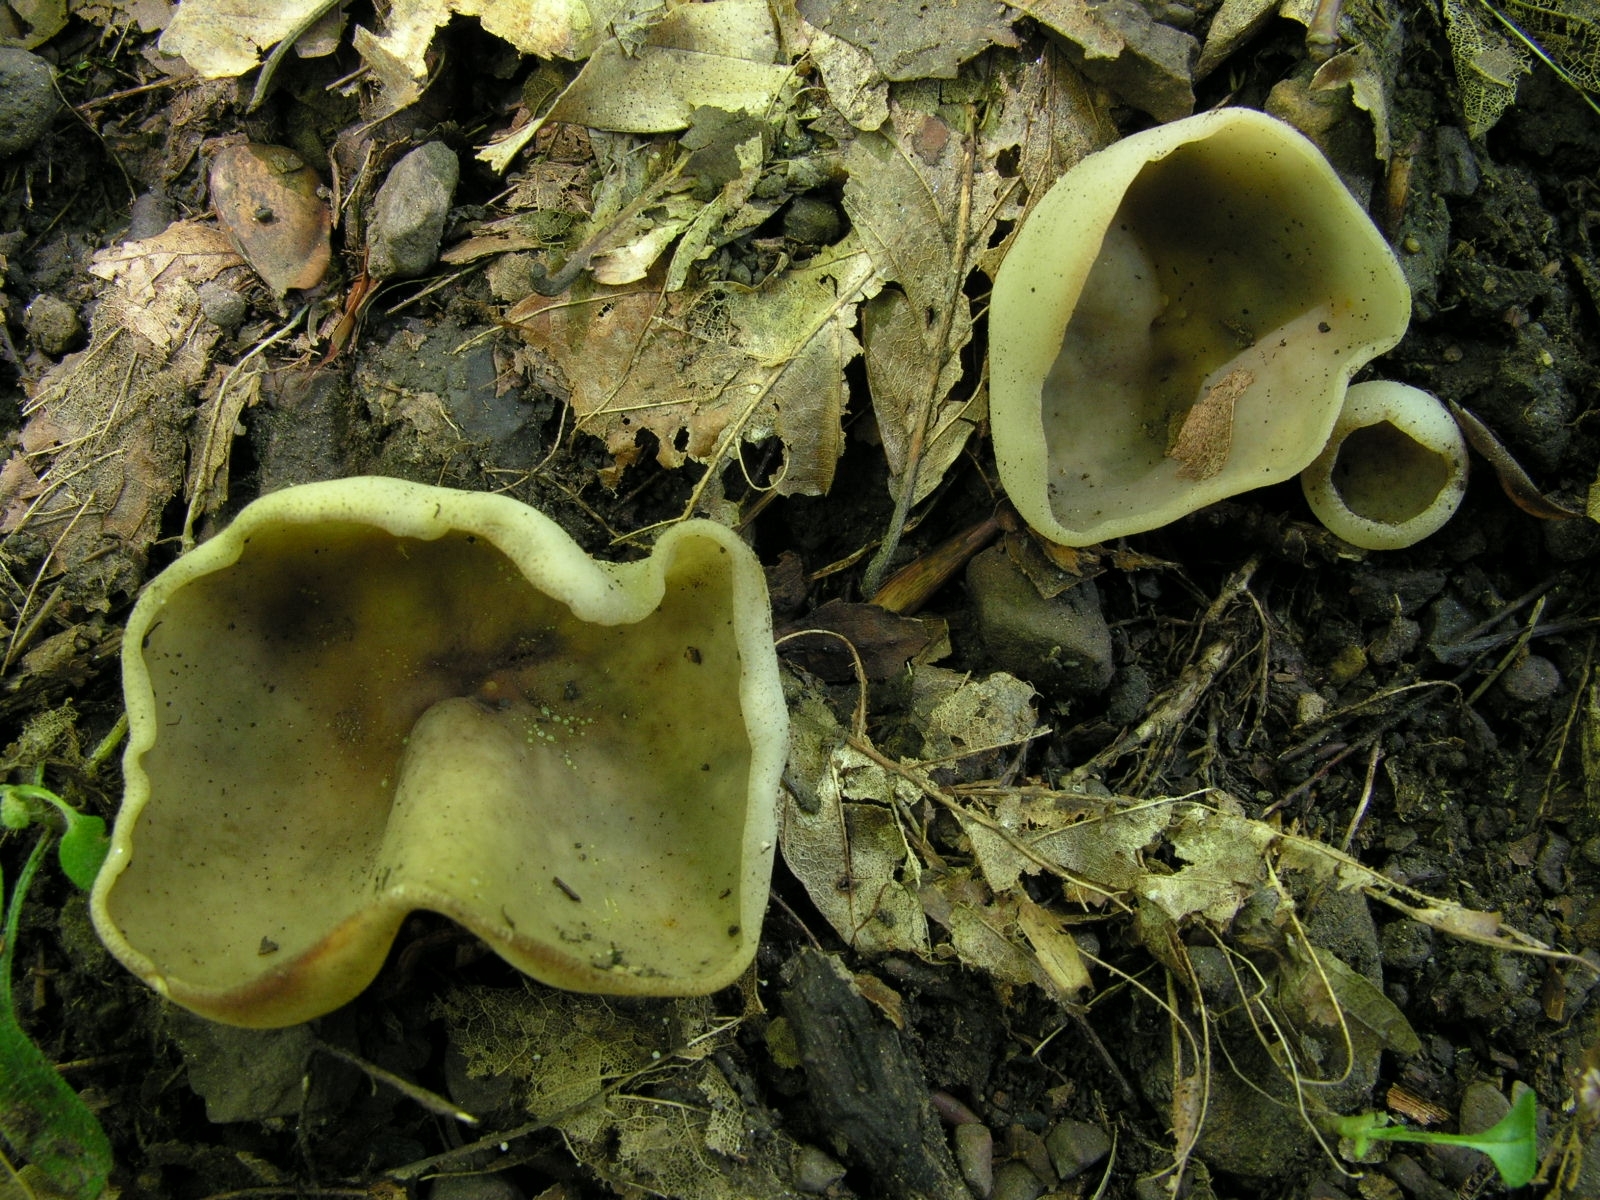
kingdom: Fungi
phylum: Ascomycota
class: Pezizomycetes
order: Pezizales
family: Pezizaceae
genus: Paragalactinia
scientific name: Paragalactinia succosa
